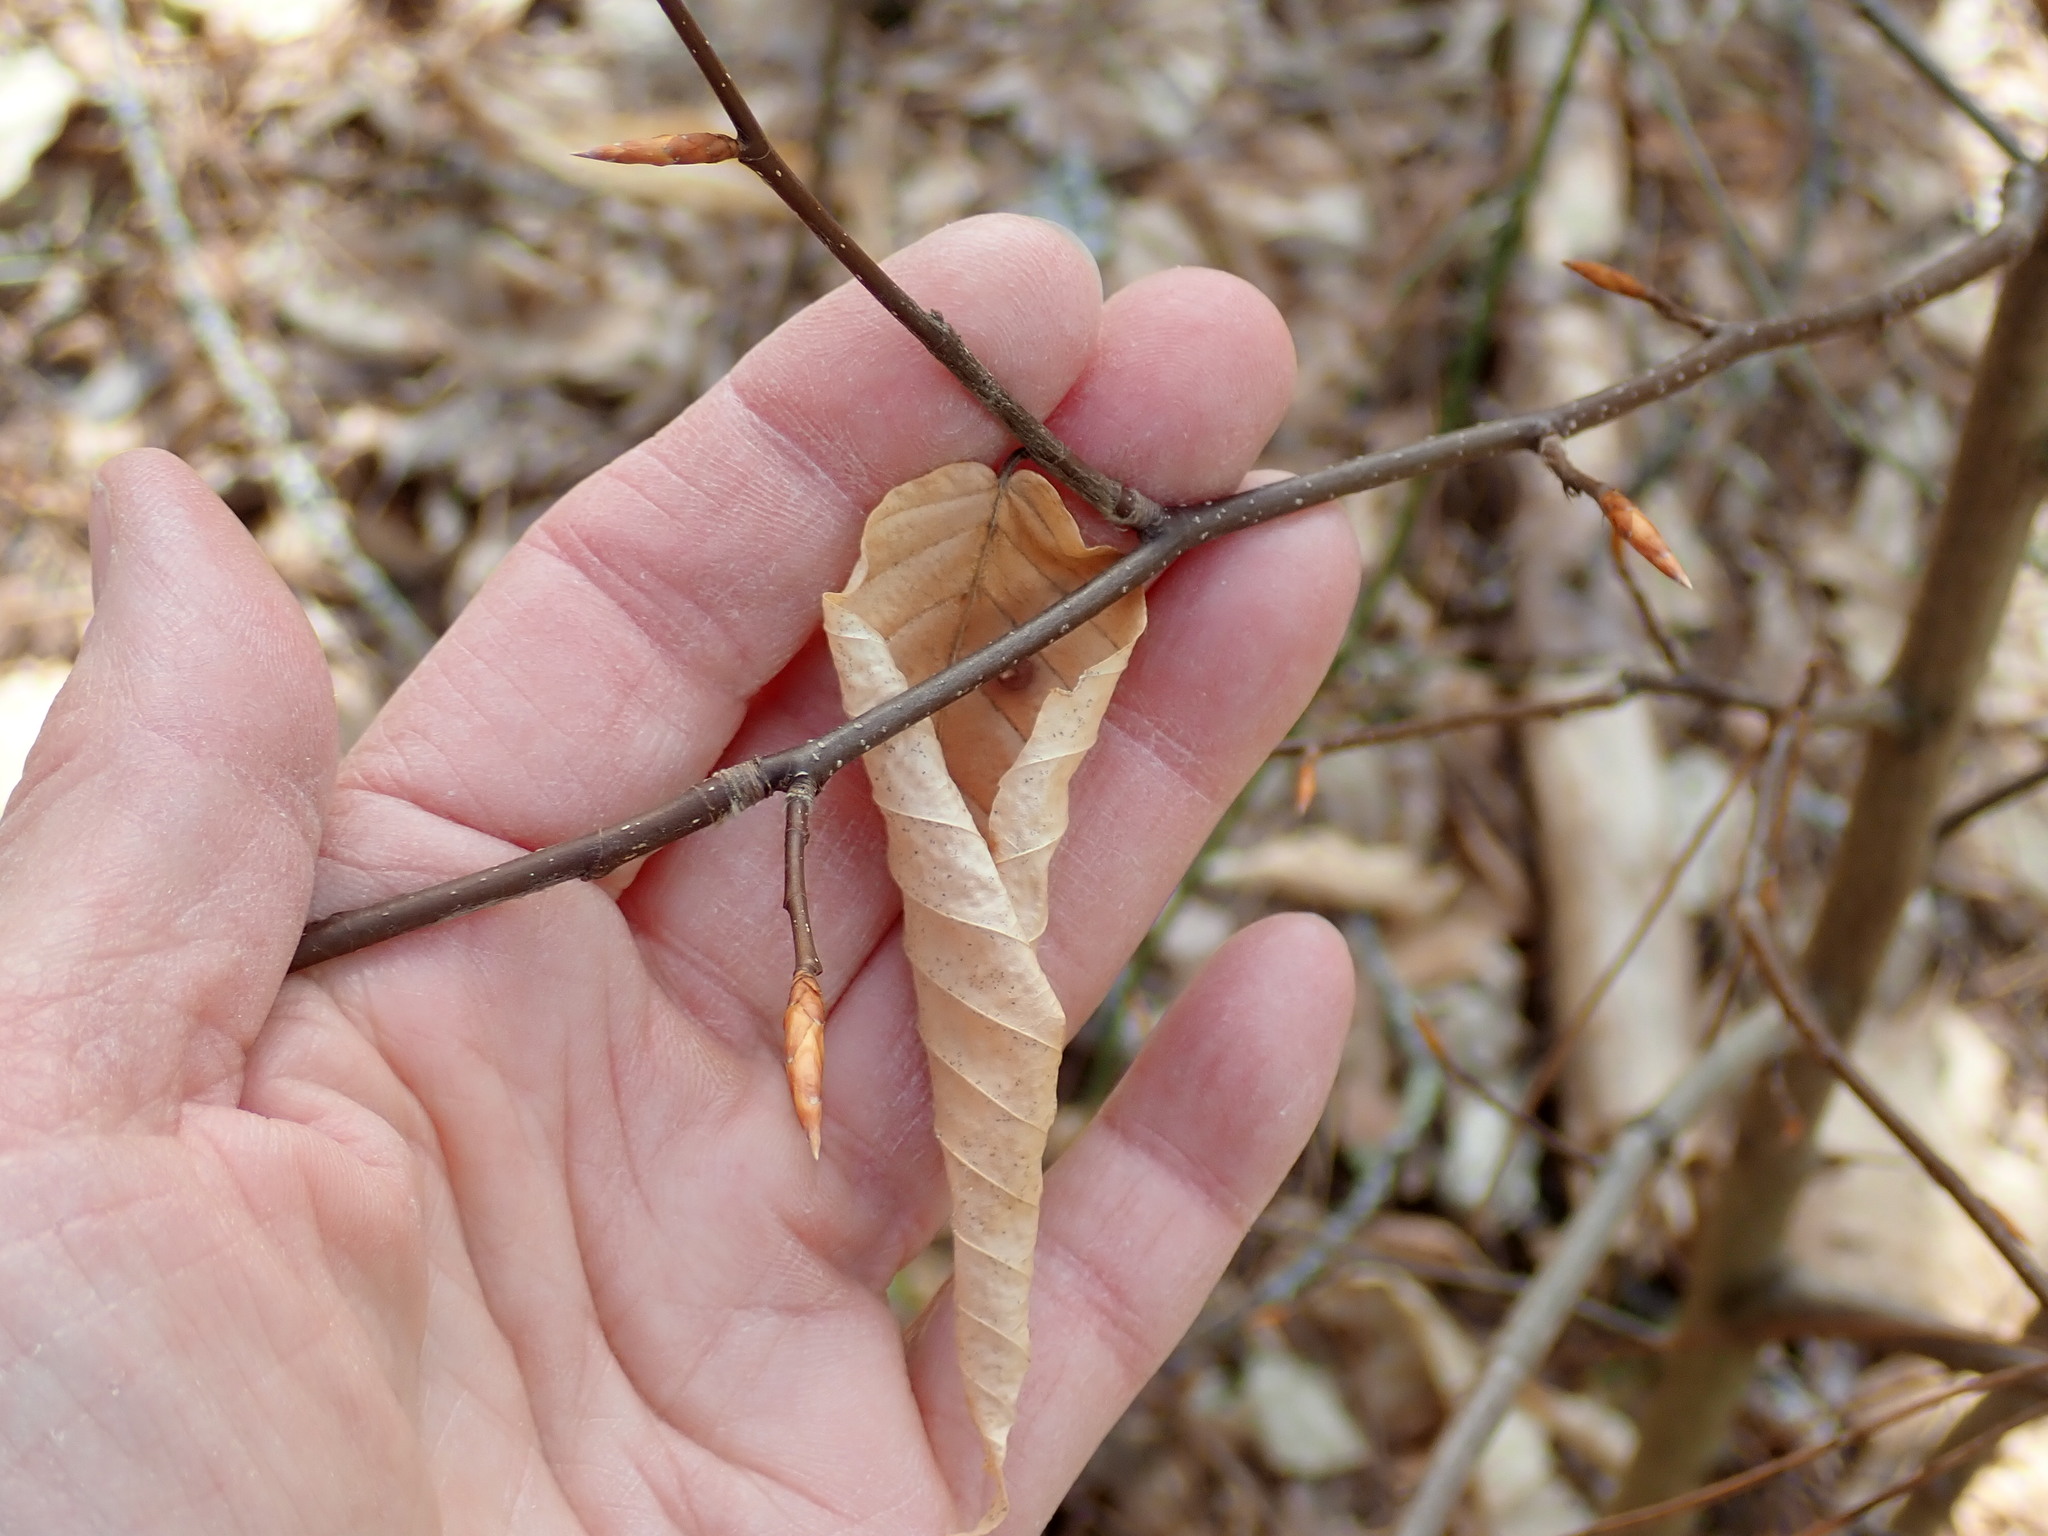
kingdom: Plantae
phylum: Tracheophyta
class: Magnoliopsida
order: Fagales
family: Fagaceae
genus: Fagus
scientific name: Fagus grandifolia
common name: American beech
